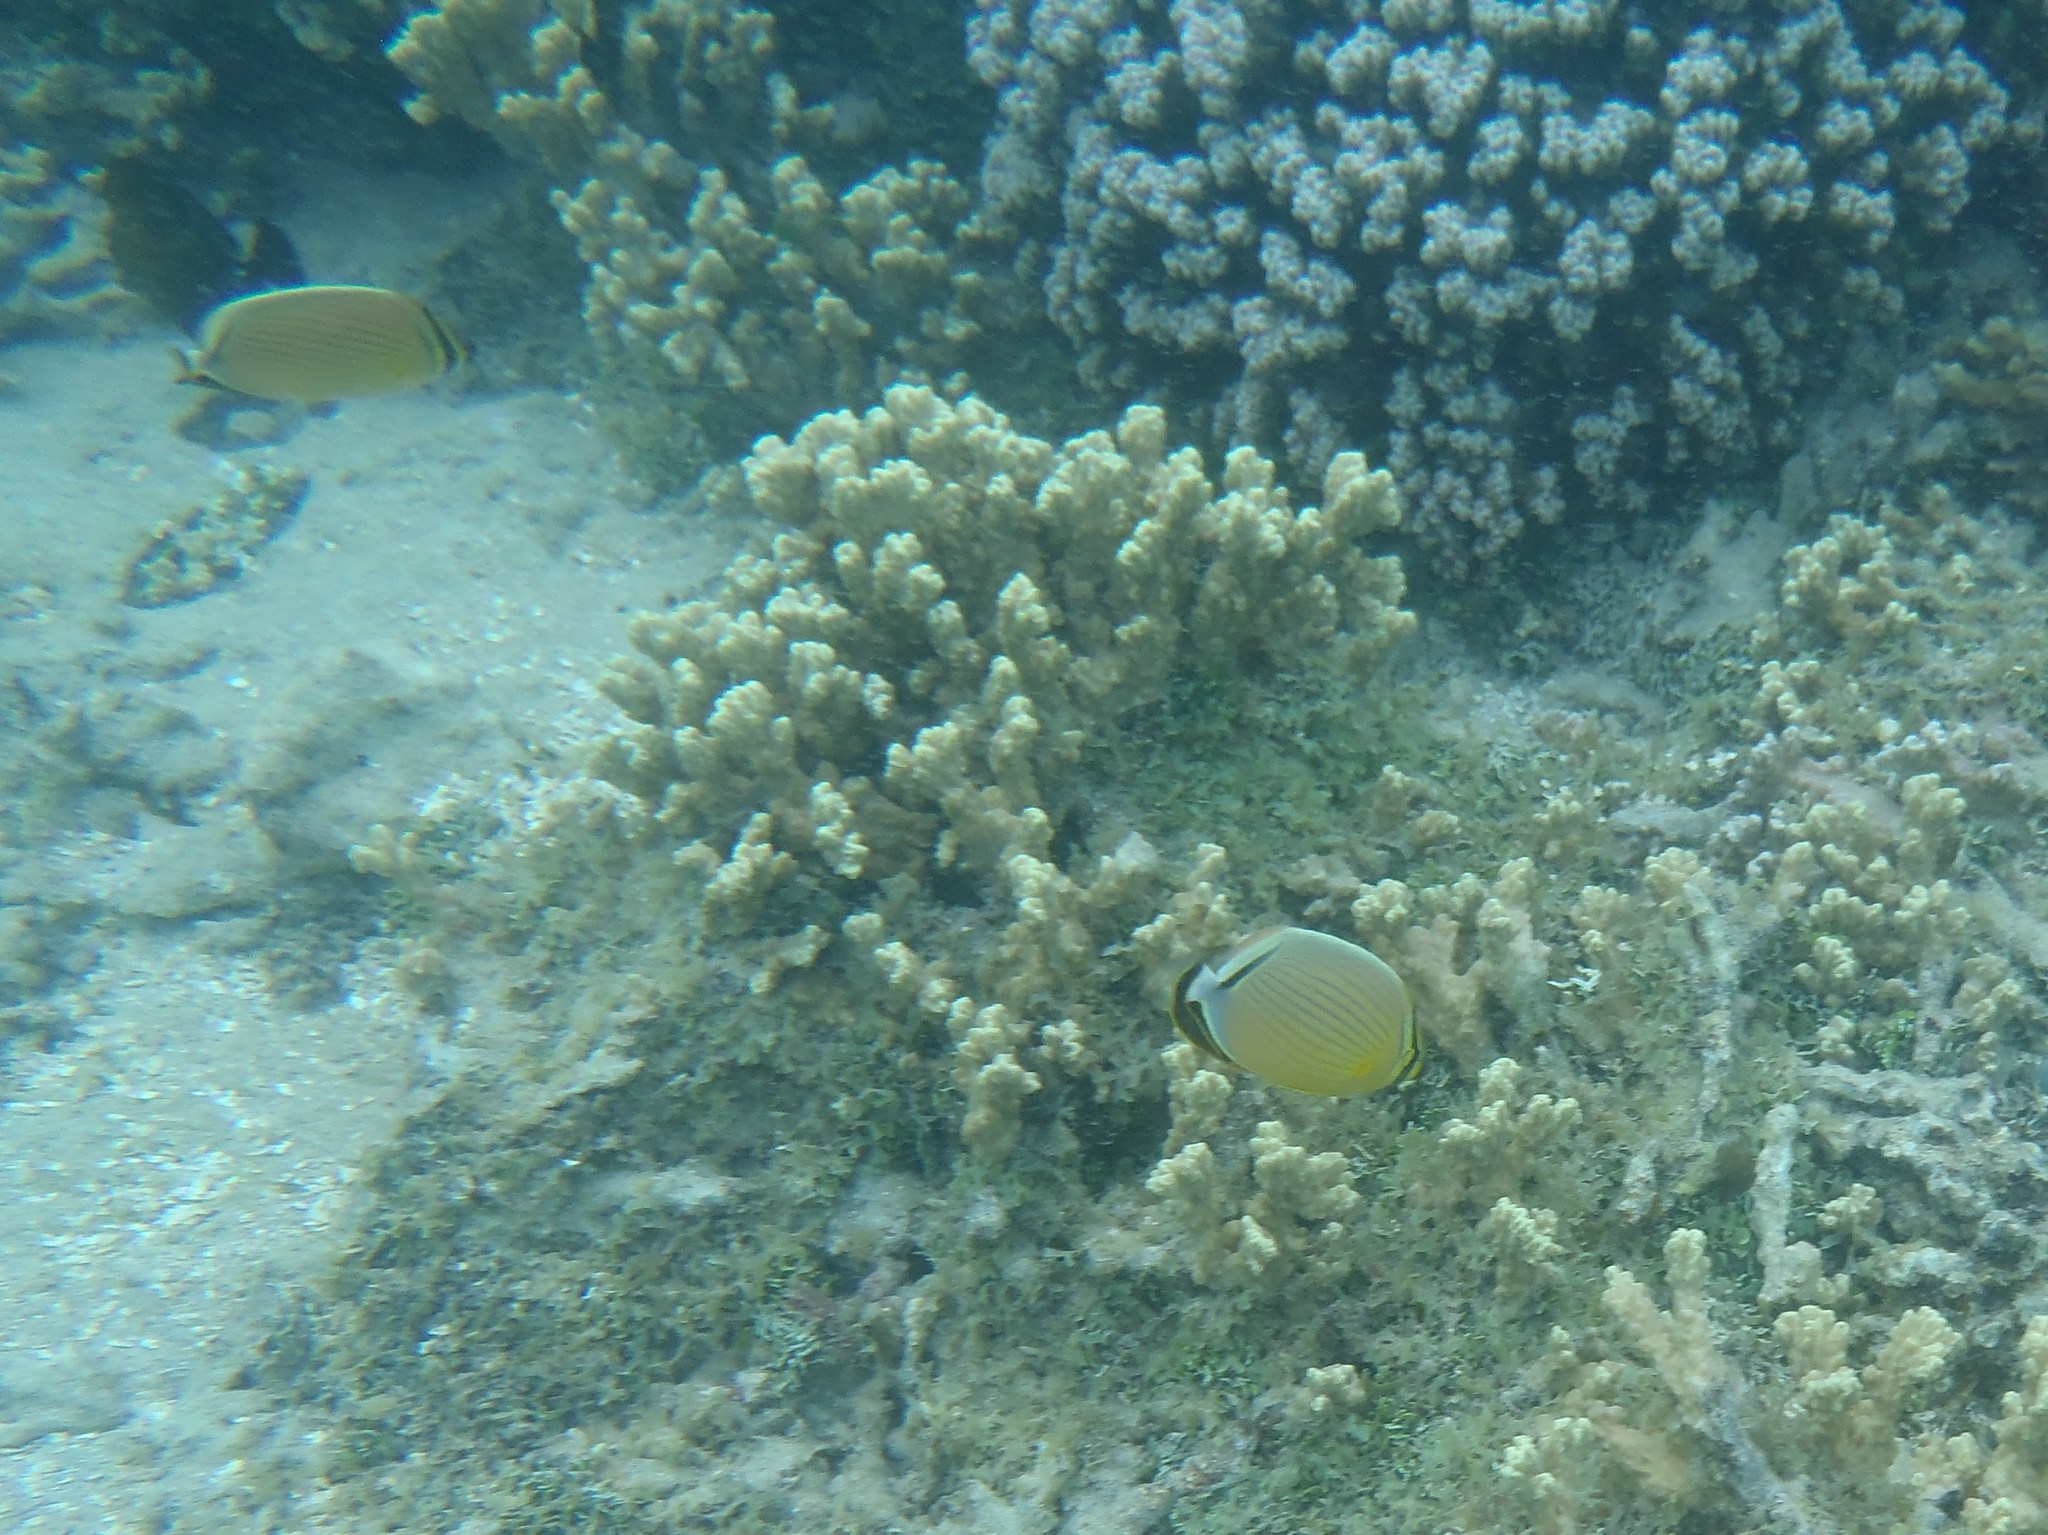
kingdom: Animalia
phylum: Chordata
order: Perciformes
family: Chaetodontidae
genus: Chaetodon
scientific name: Chaetodon lunulatus
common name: Redfin butterflyfish
